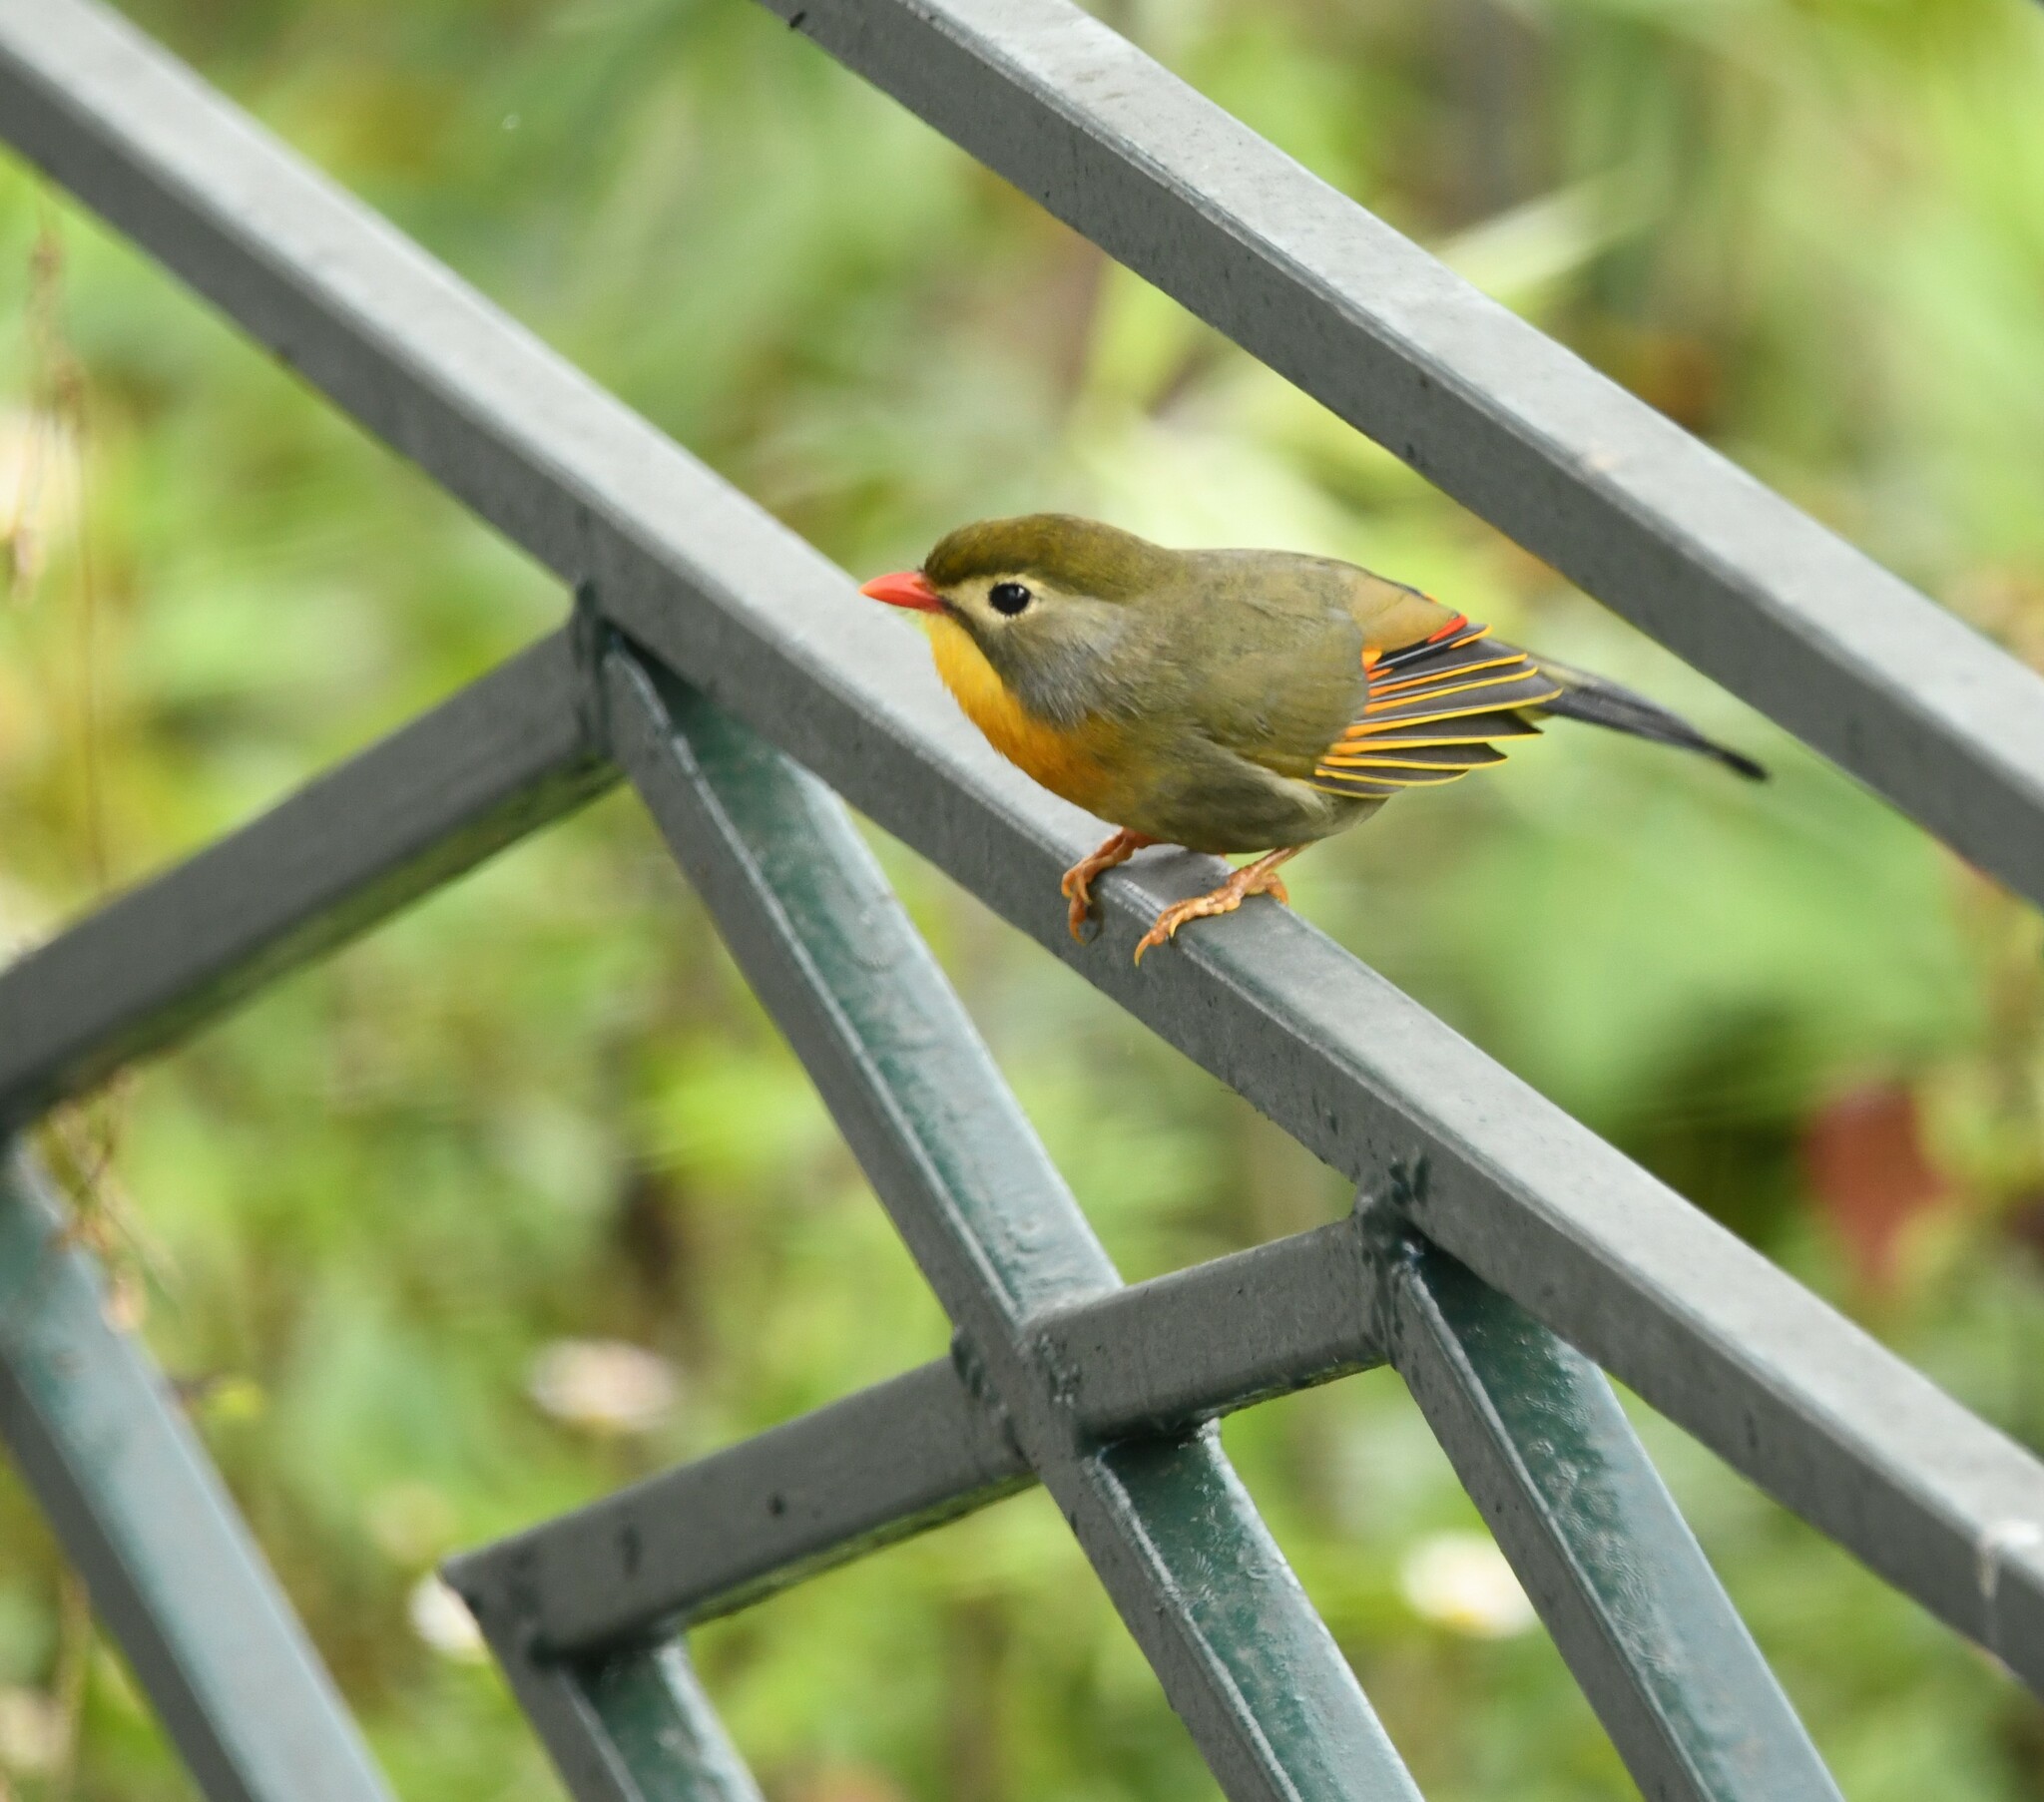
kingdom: Animalia
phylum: Chordata
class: Aves
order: Passeriformes
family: Leiothrichidae
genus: Leiothrix
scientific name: Leiothrix lutea
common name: Red-billed leiothrix
